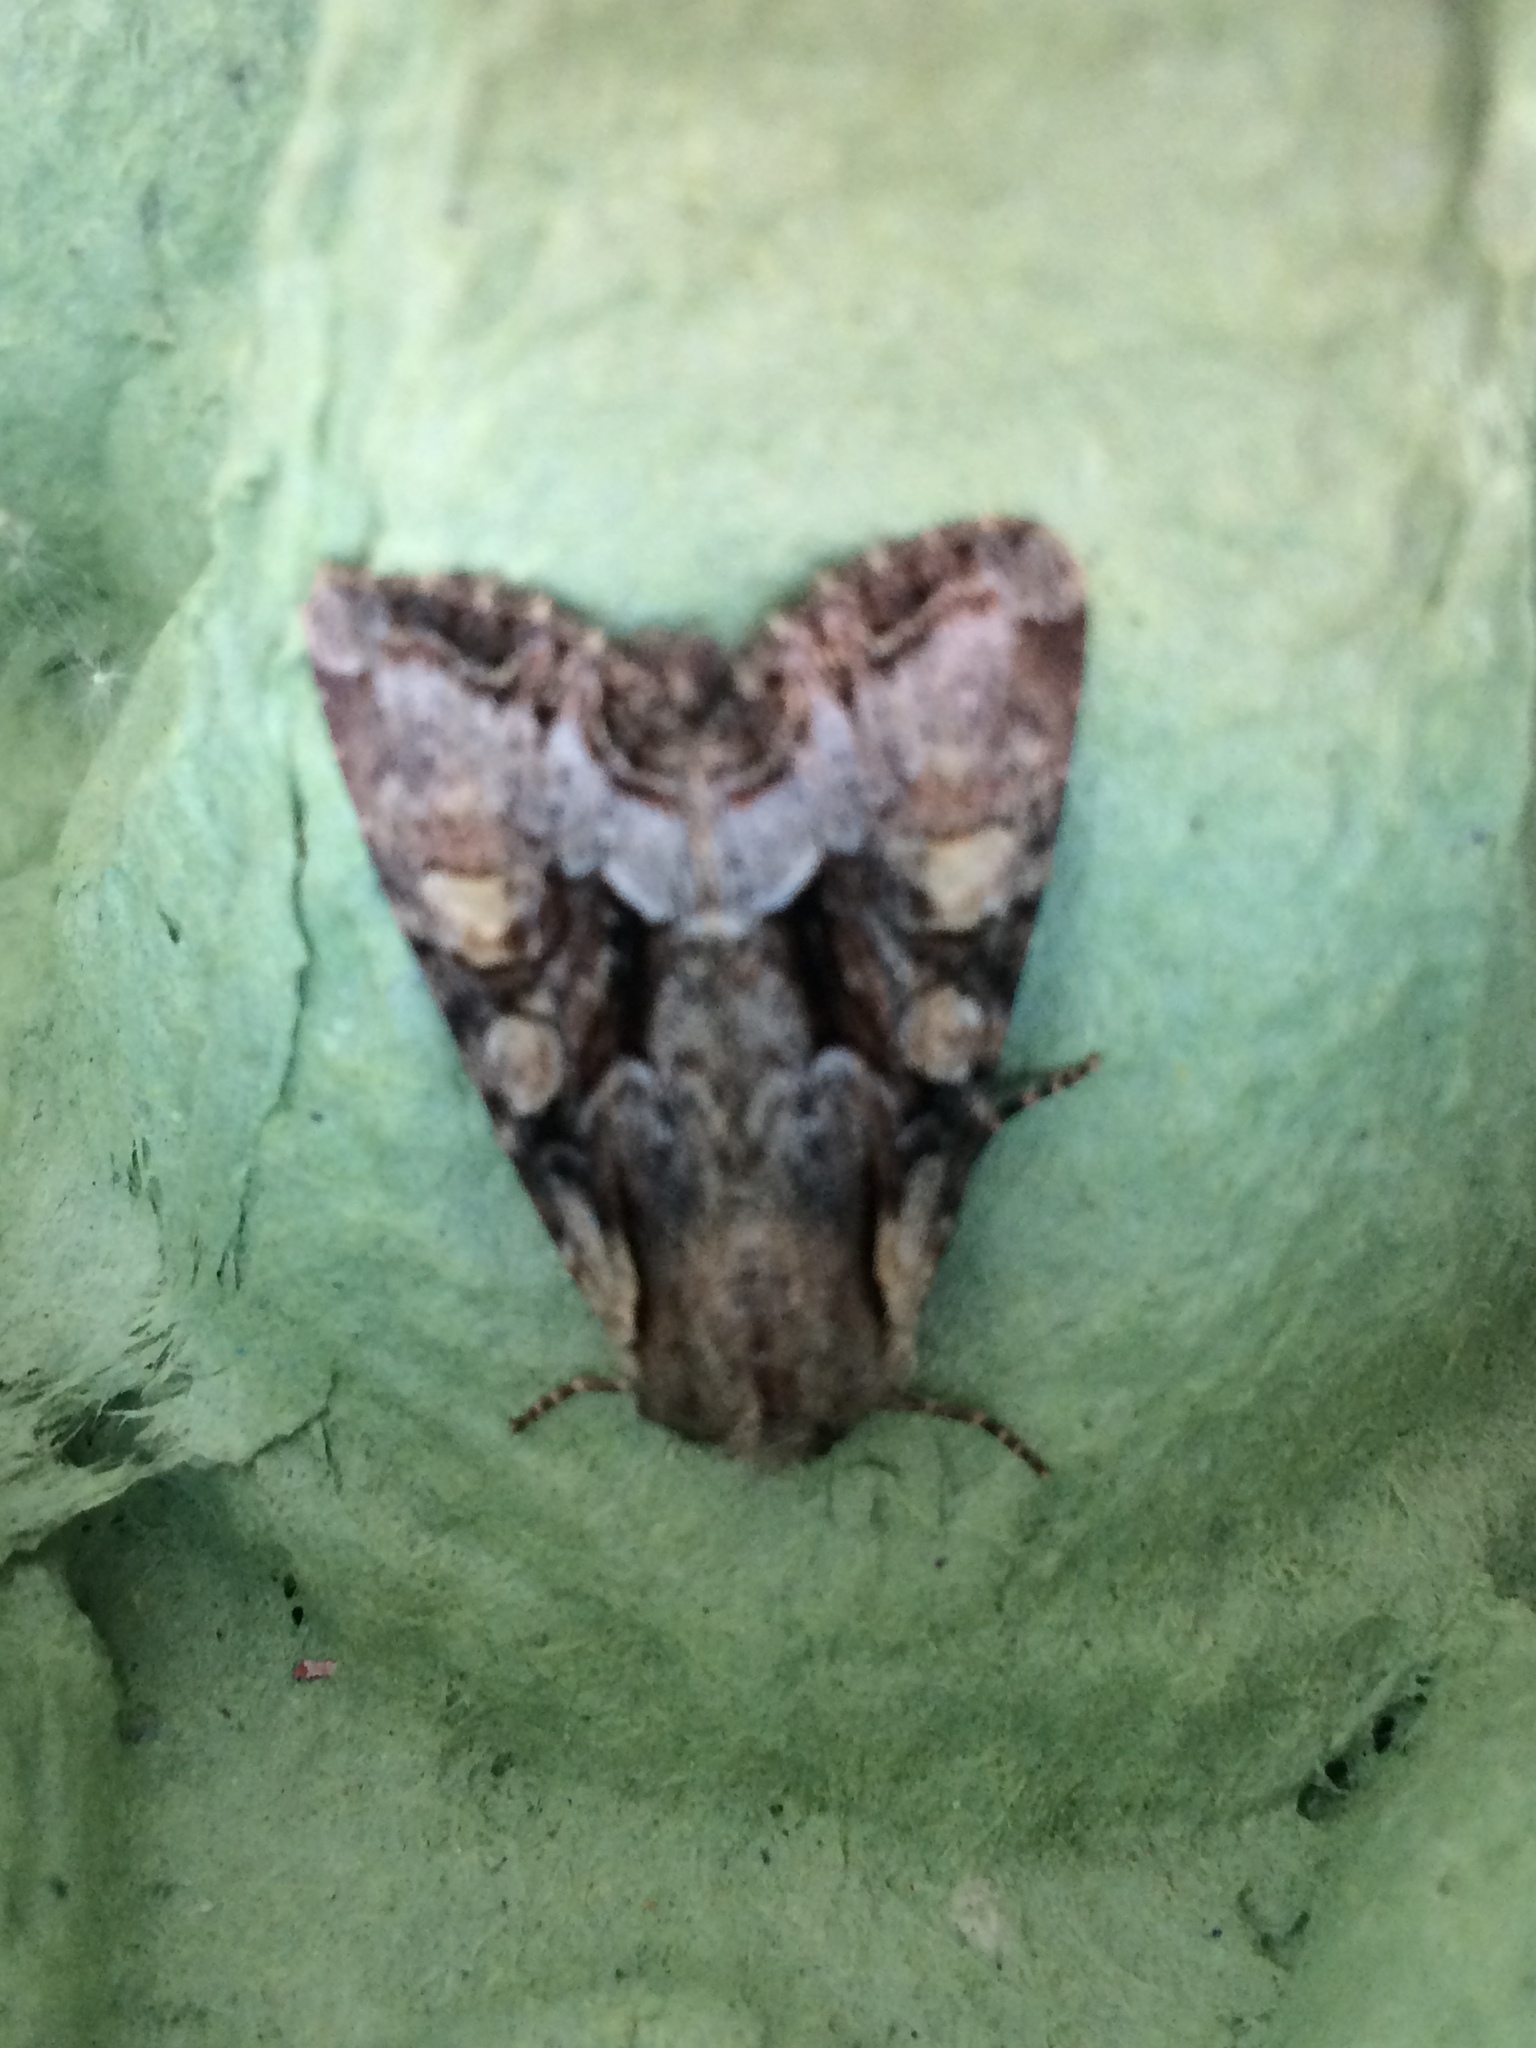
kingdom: Animalia
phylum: Arthropoda
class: Insecta
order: Lepidoptera
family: Noctuidae
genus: Lacanobia
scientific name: Lacanobia w-latinum
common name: Light brocade
